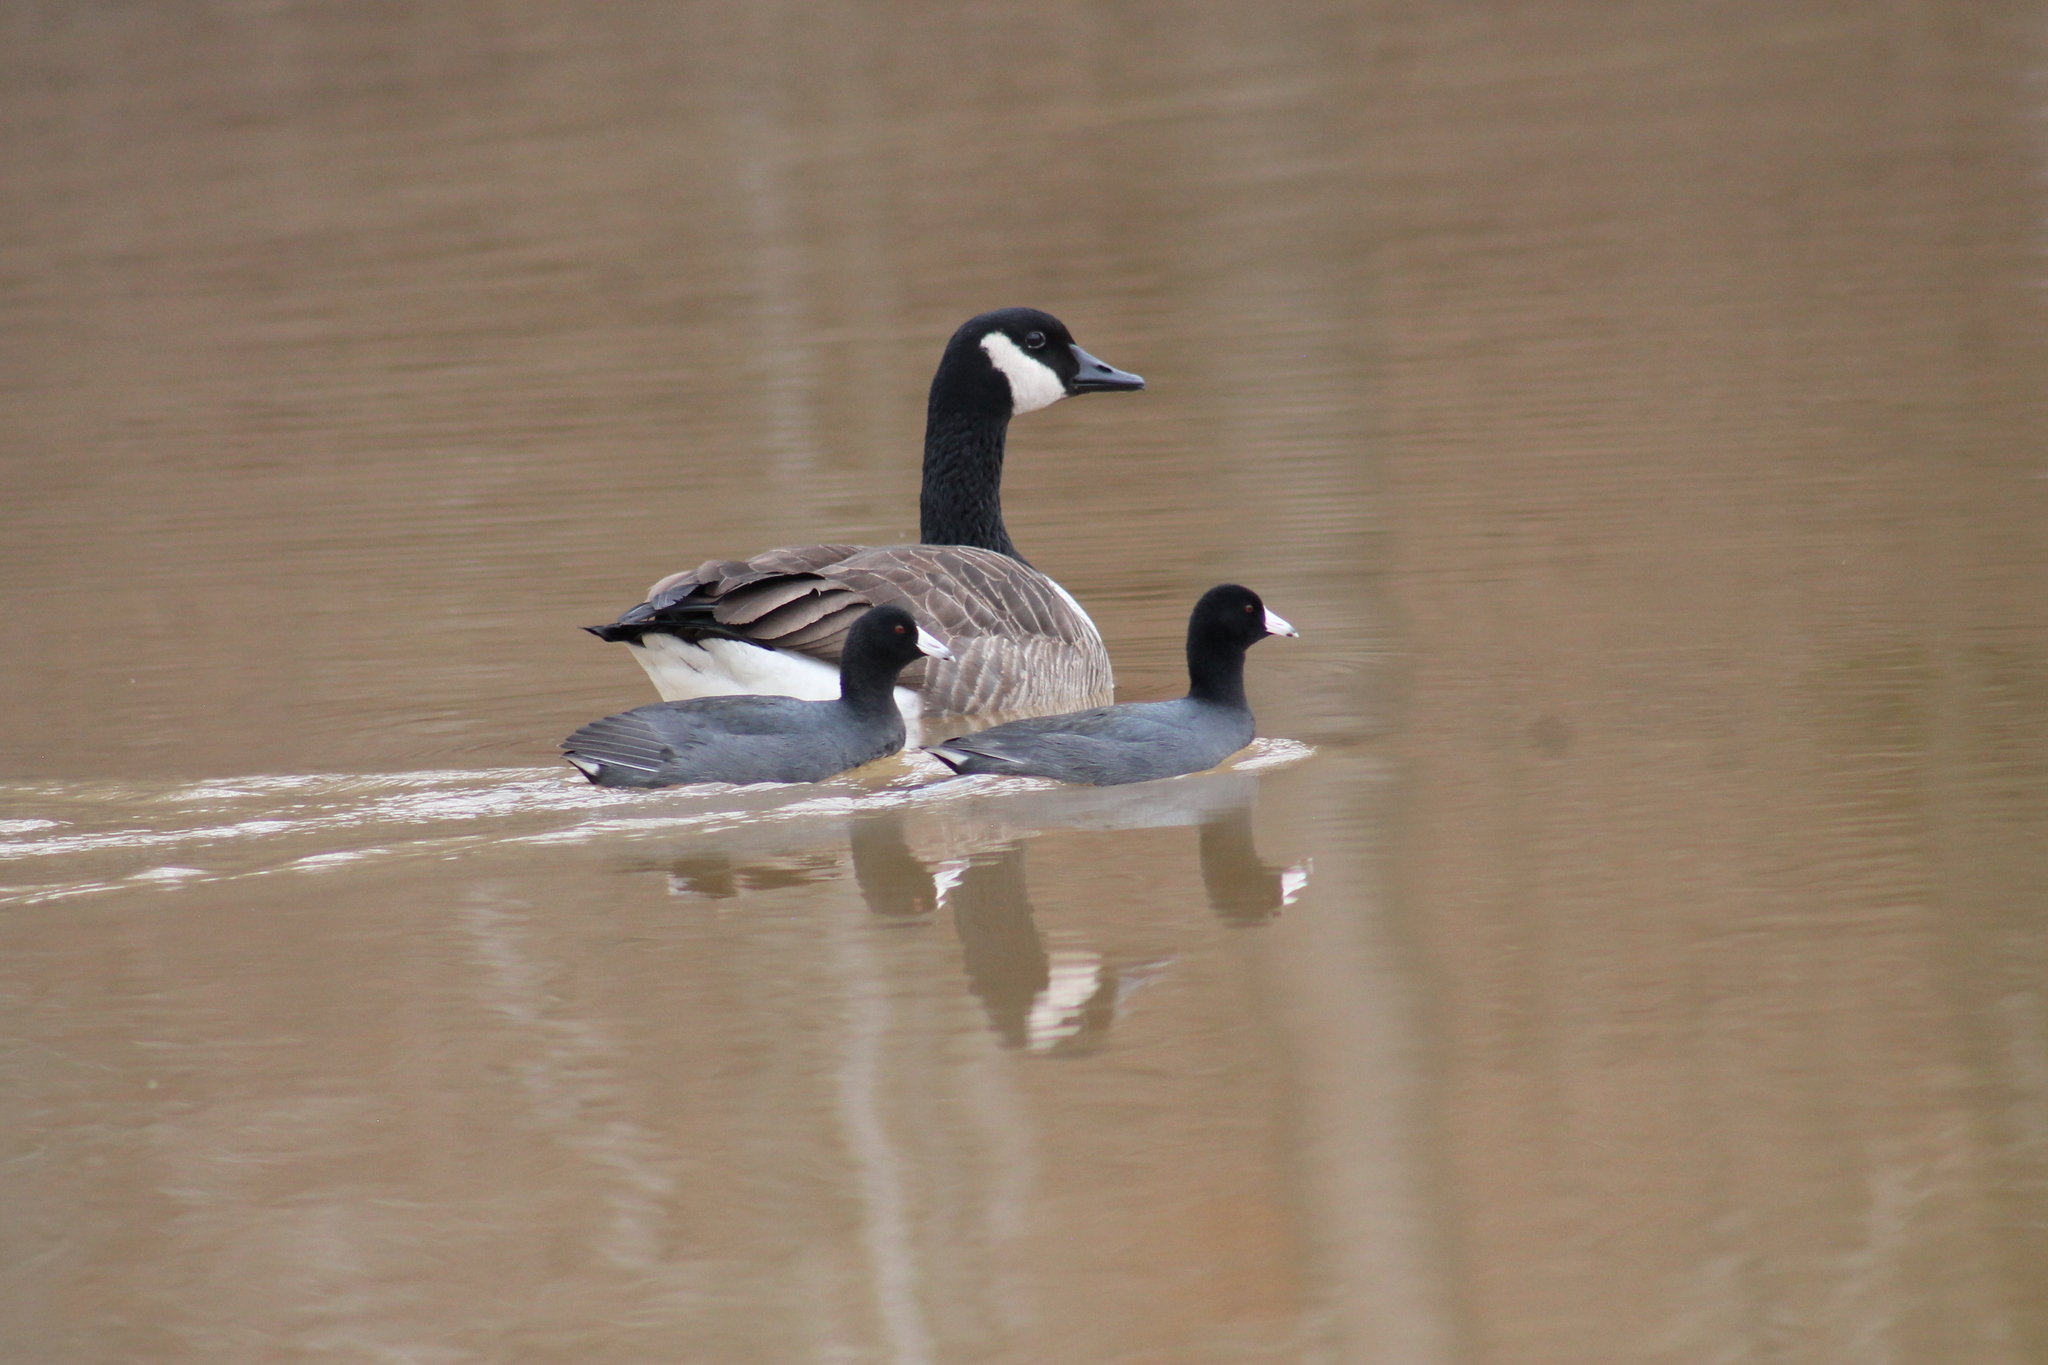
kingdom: Animalia
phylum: Chordata
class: Aves
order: Gruiformes
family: Rallidae
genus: Fulica
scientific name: Fulica americana
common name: American coot
